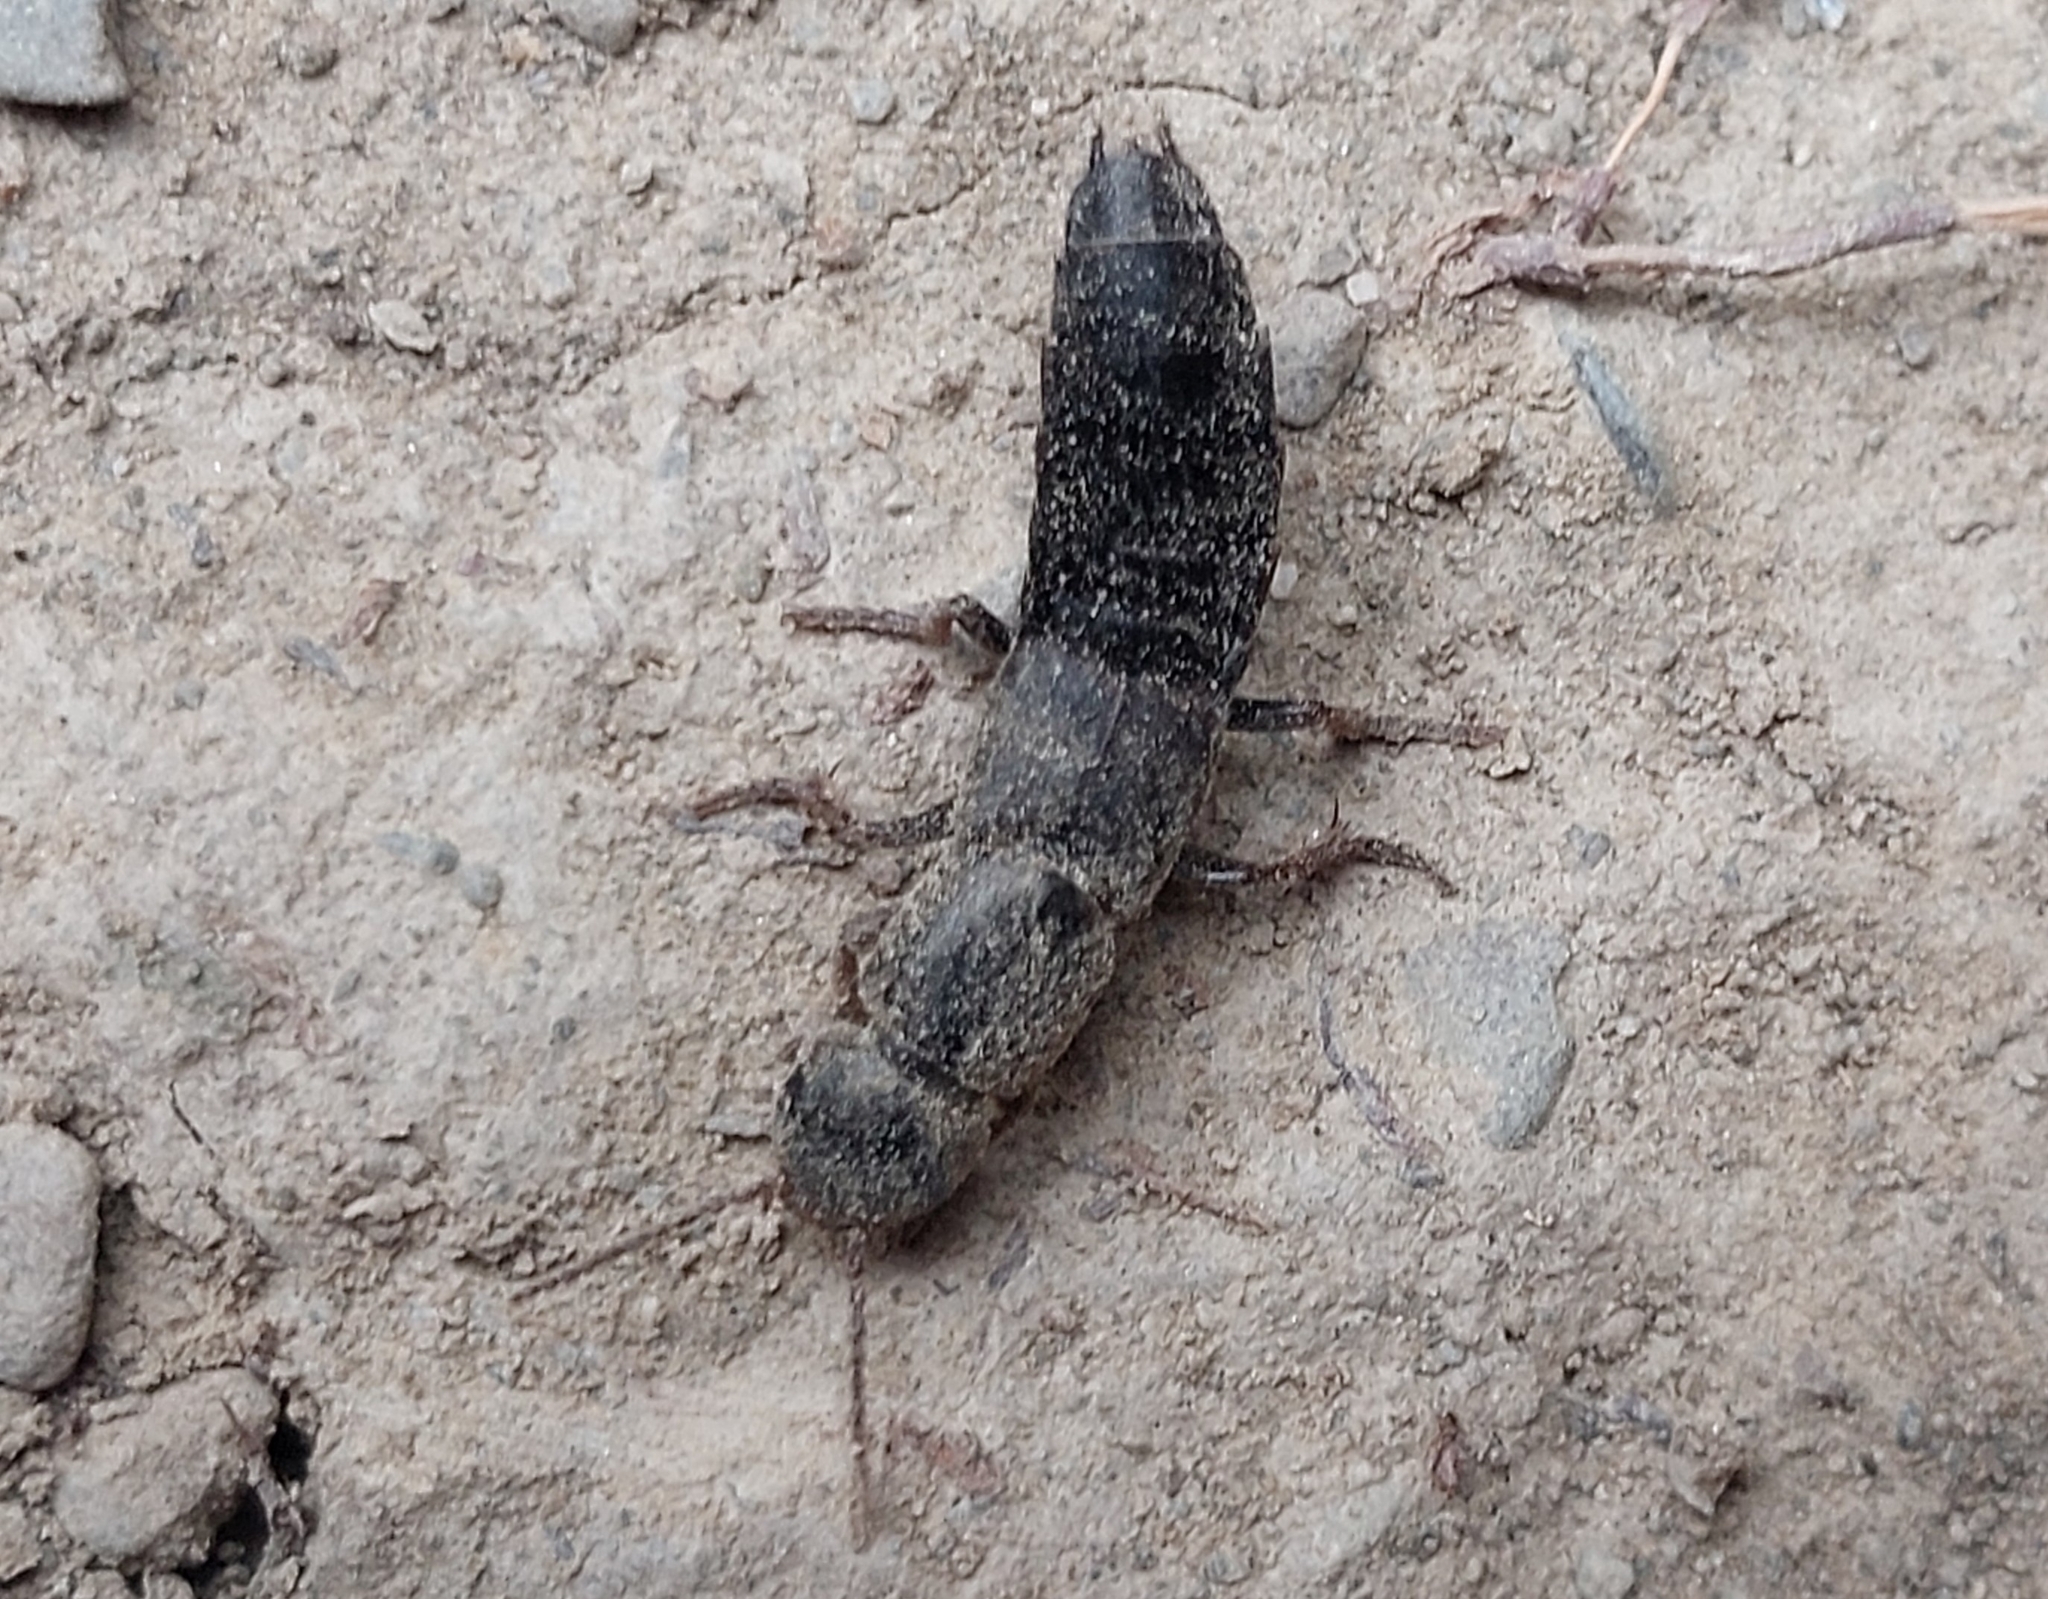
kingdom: Animalia
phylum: Arthropoda
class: Insecta
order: Coleoptera
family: Staphylinidae
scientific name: Staphylinidae
